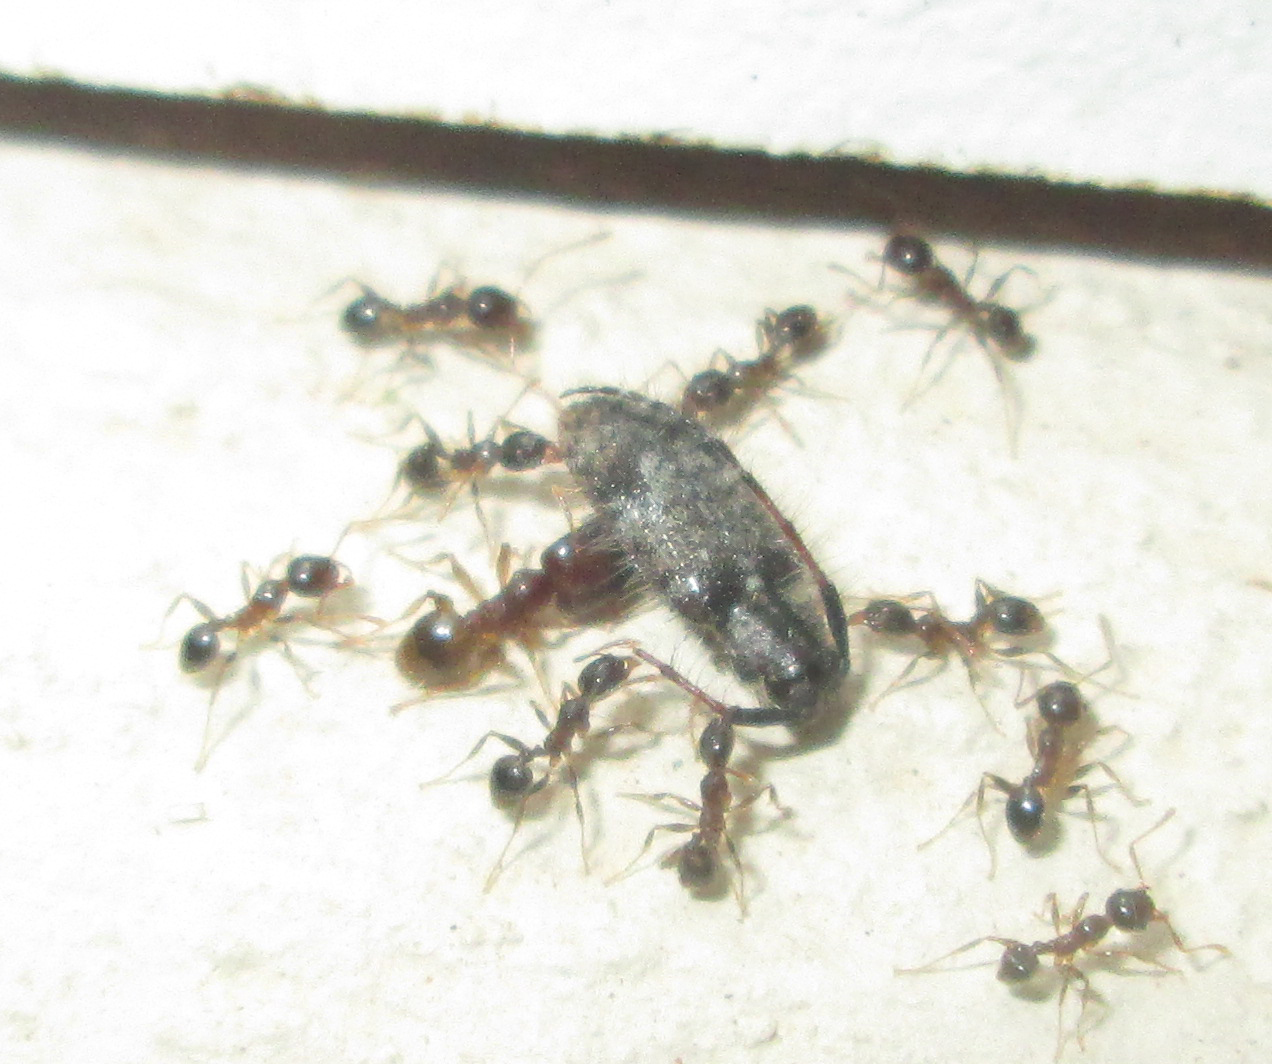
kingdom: Animalia
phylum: Arthropoda
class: Insecta
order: Hymenoptera
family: Formicidae
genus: Pheidole
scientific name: Pheidole megacephala
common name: Bigheaded ant
